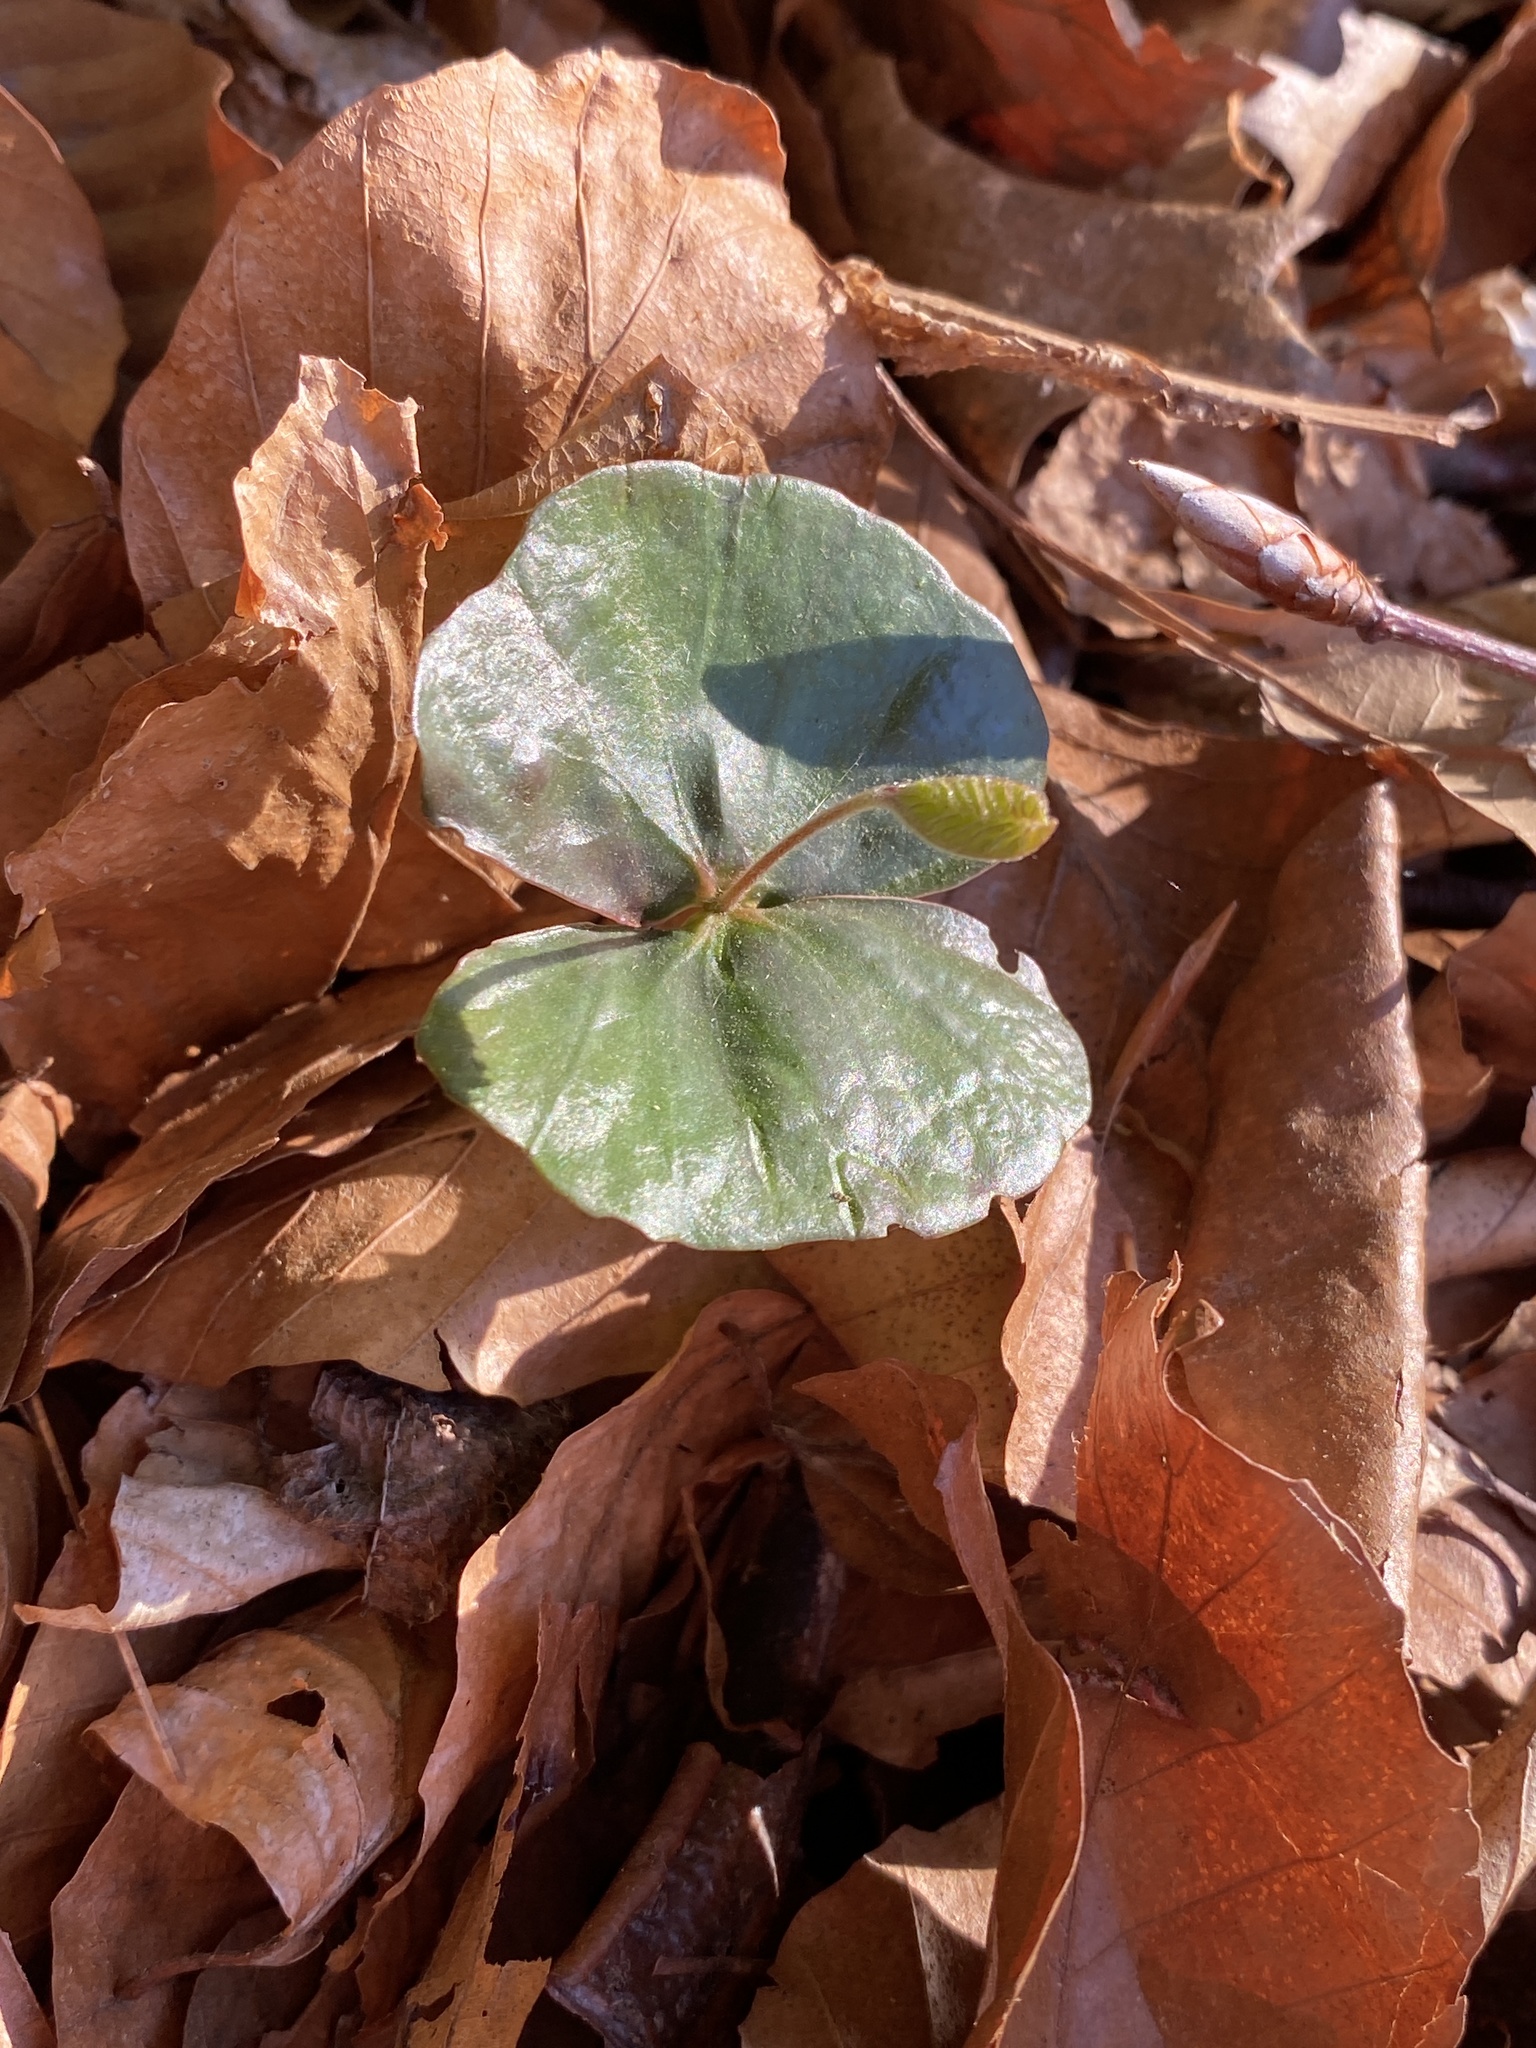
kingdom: Plantae
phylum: Tracheophyta
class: Magnoliopsida
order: Fagales
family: Fagaceae
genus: Fagus
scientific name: Fagus sylvatica
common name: Beech
